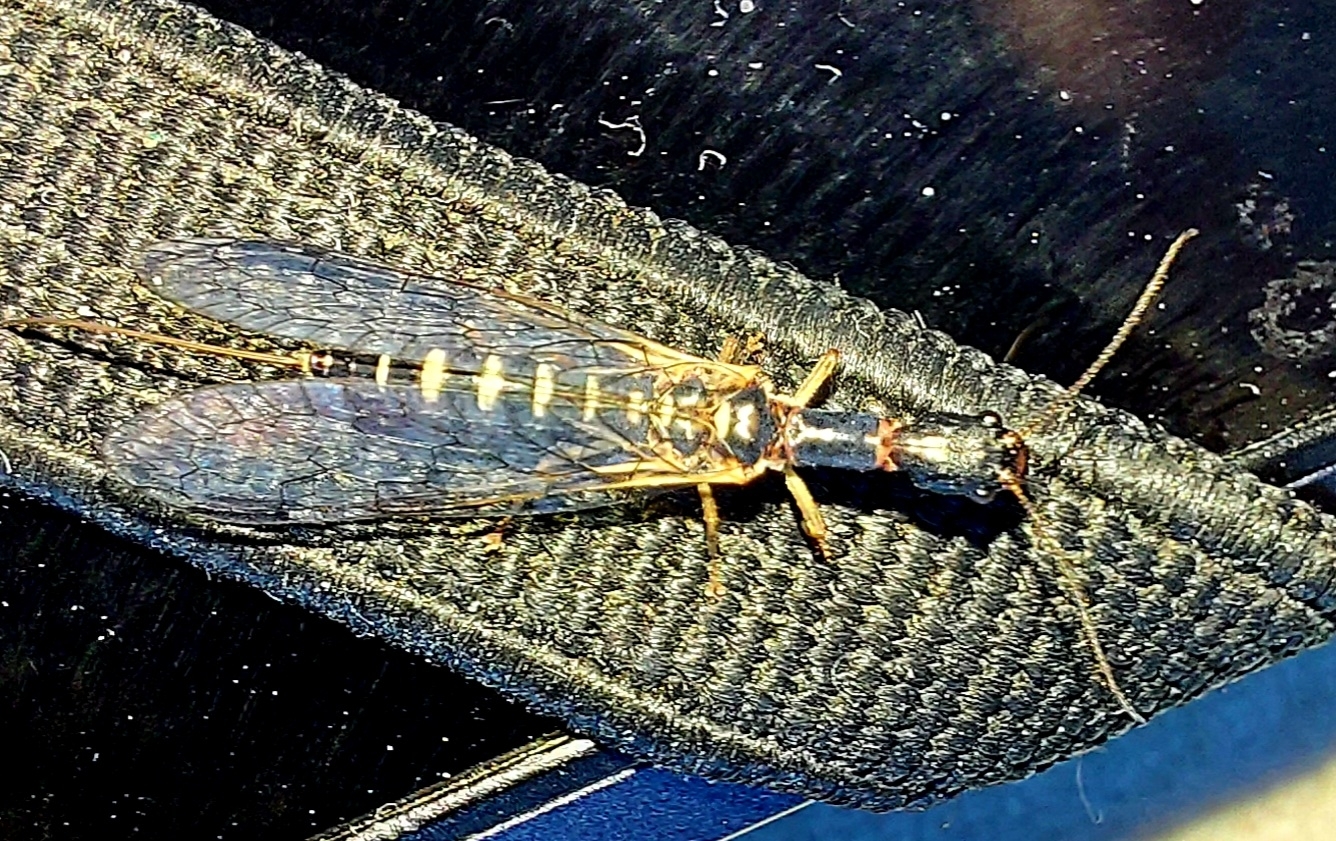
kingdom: Animalia
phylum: Arthropoda
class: Insecta
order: Raphidioptera
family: Inocelliidae
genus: Inocellia
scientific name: Inocellia crassicornis
